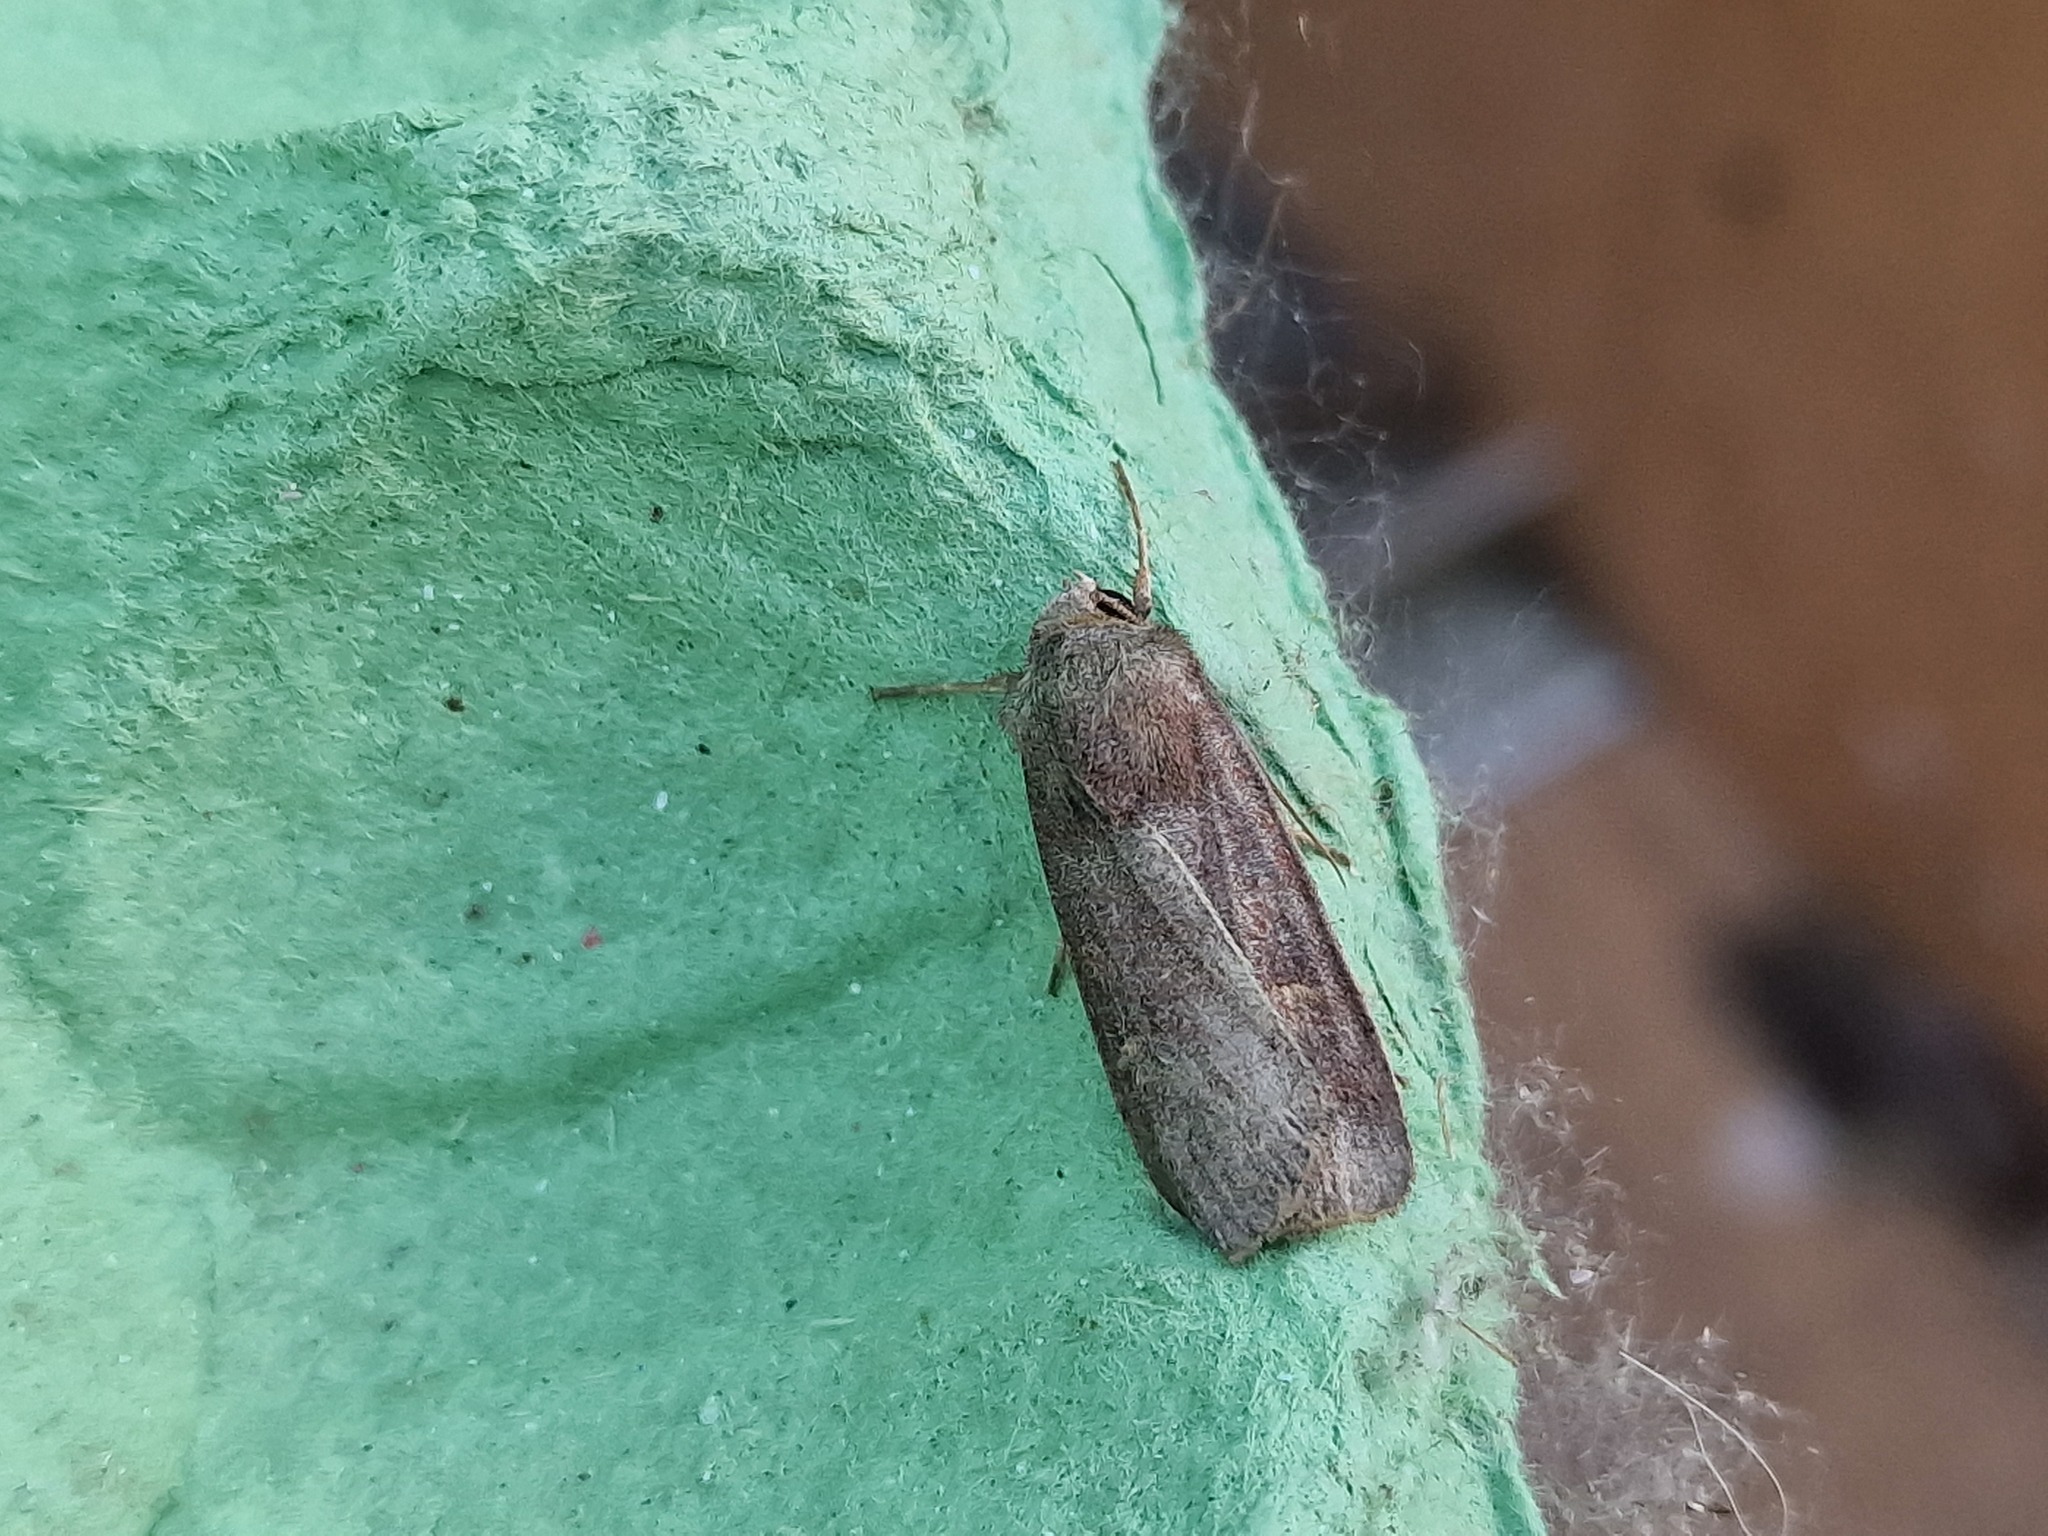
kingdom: Animalia
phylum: Arthropoda
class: Insecta
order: Lepidoptera
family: Noctuidae
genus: Xestia
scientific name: Xestia xanthographa
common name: Square-spot rustic
